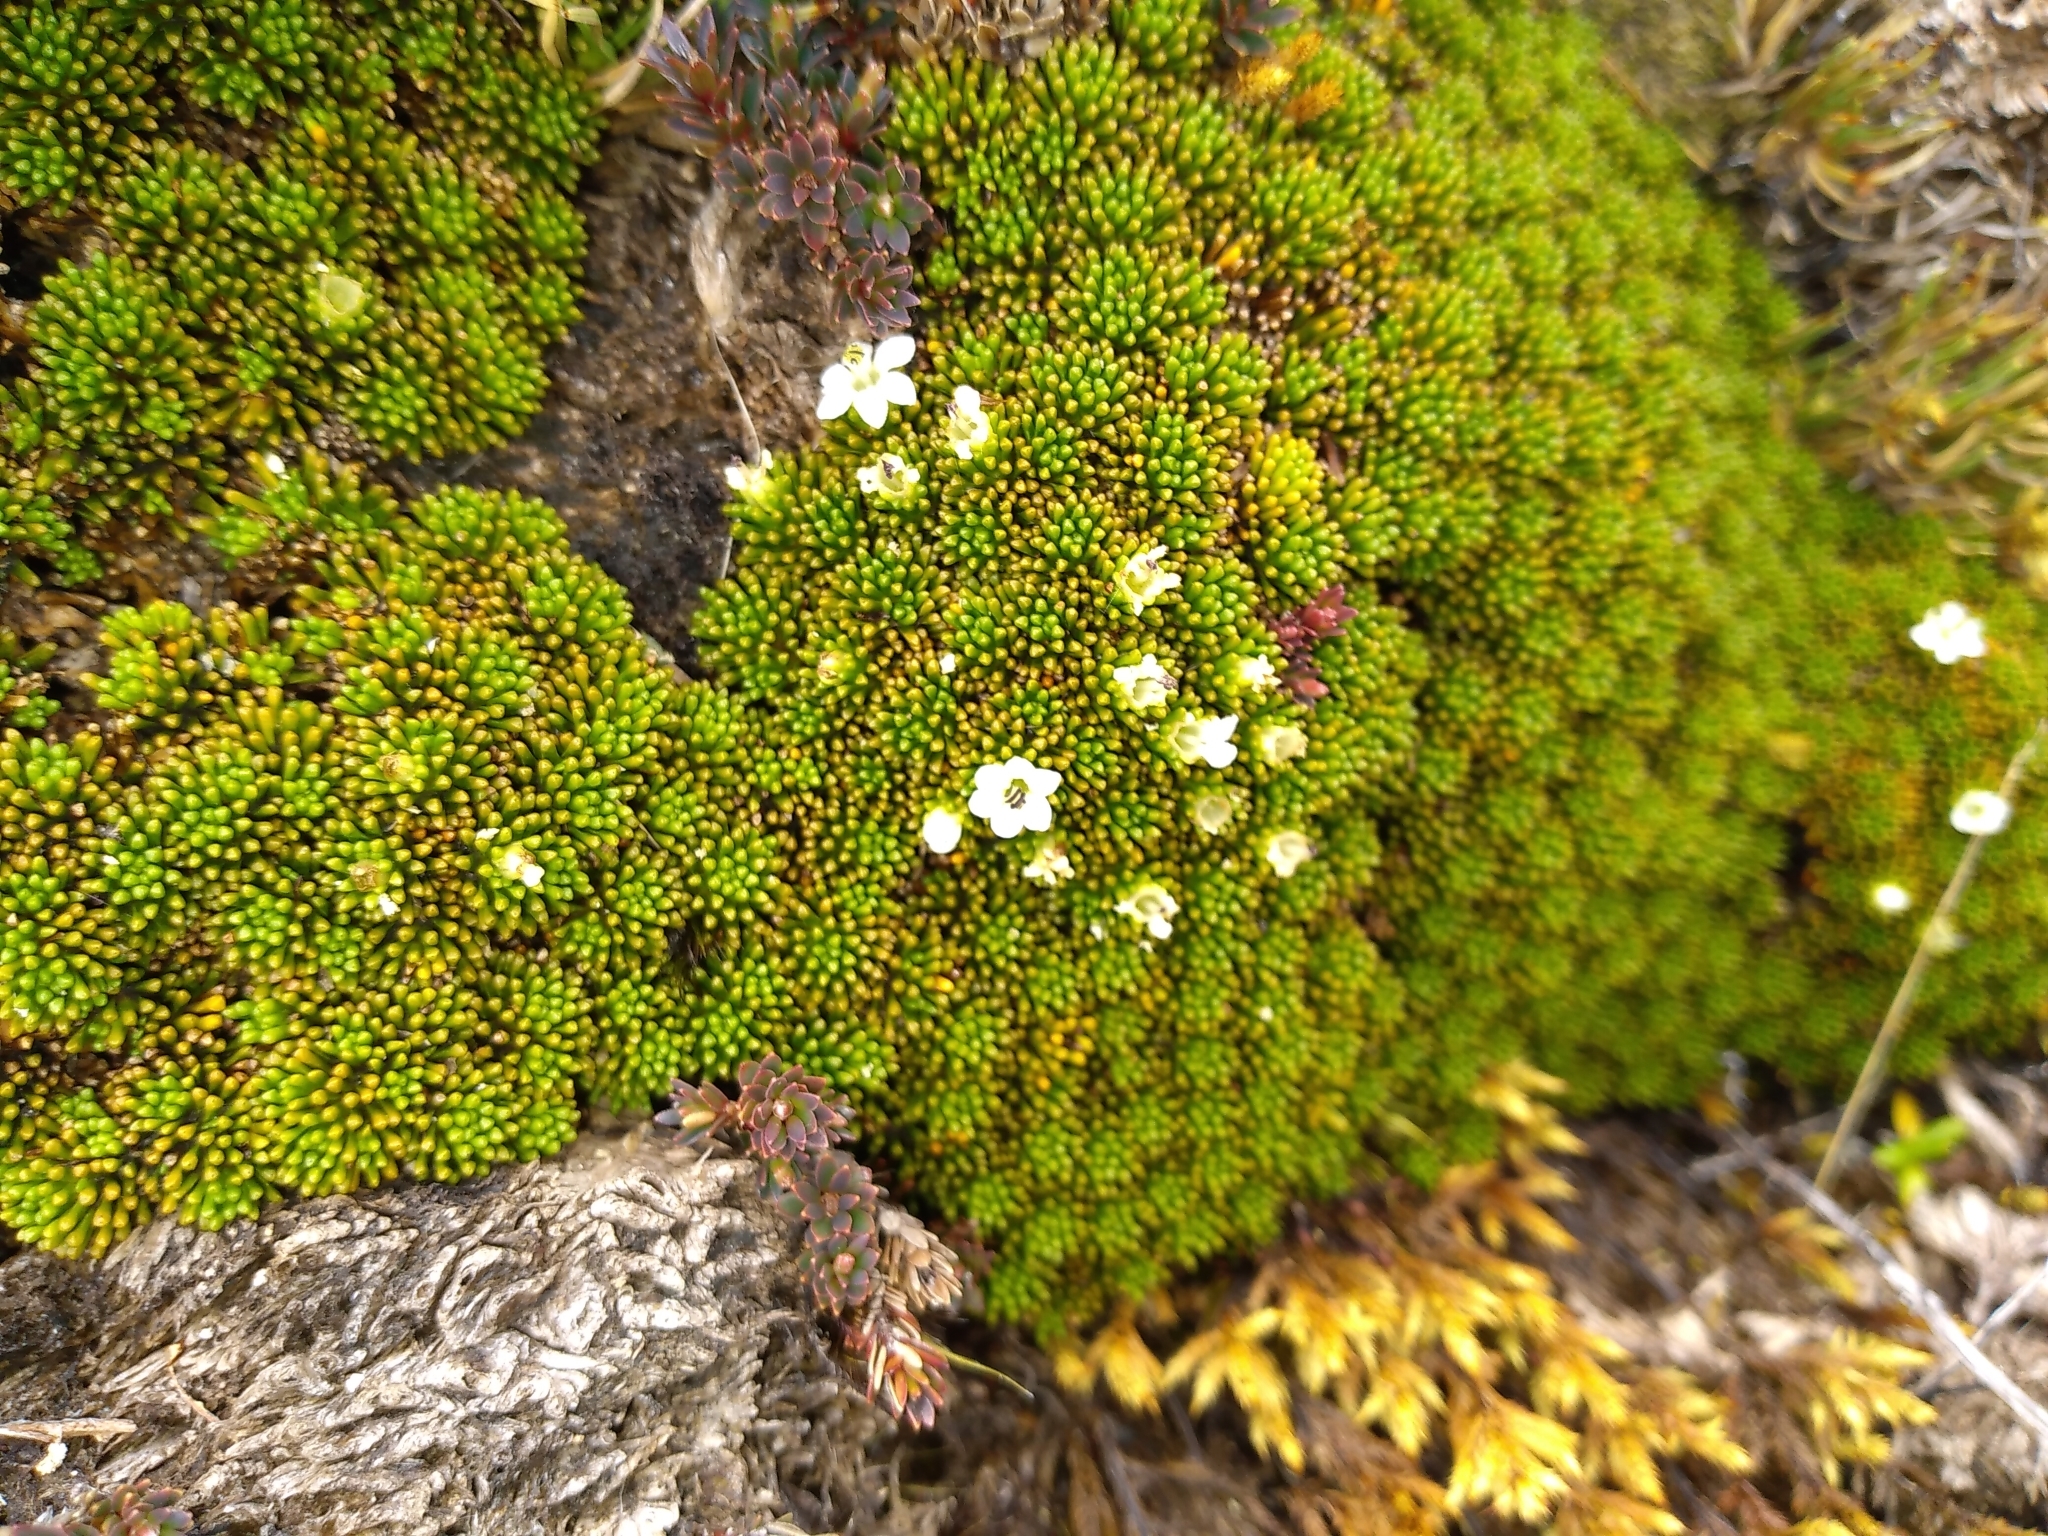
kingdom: Plantae
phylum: Tracheophyta
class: Magnoliopsida
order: Asterales
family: Stylidiaceae
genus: Phyllachne
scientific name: Phyllachne colensoi
